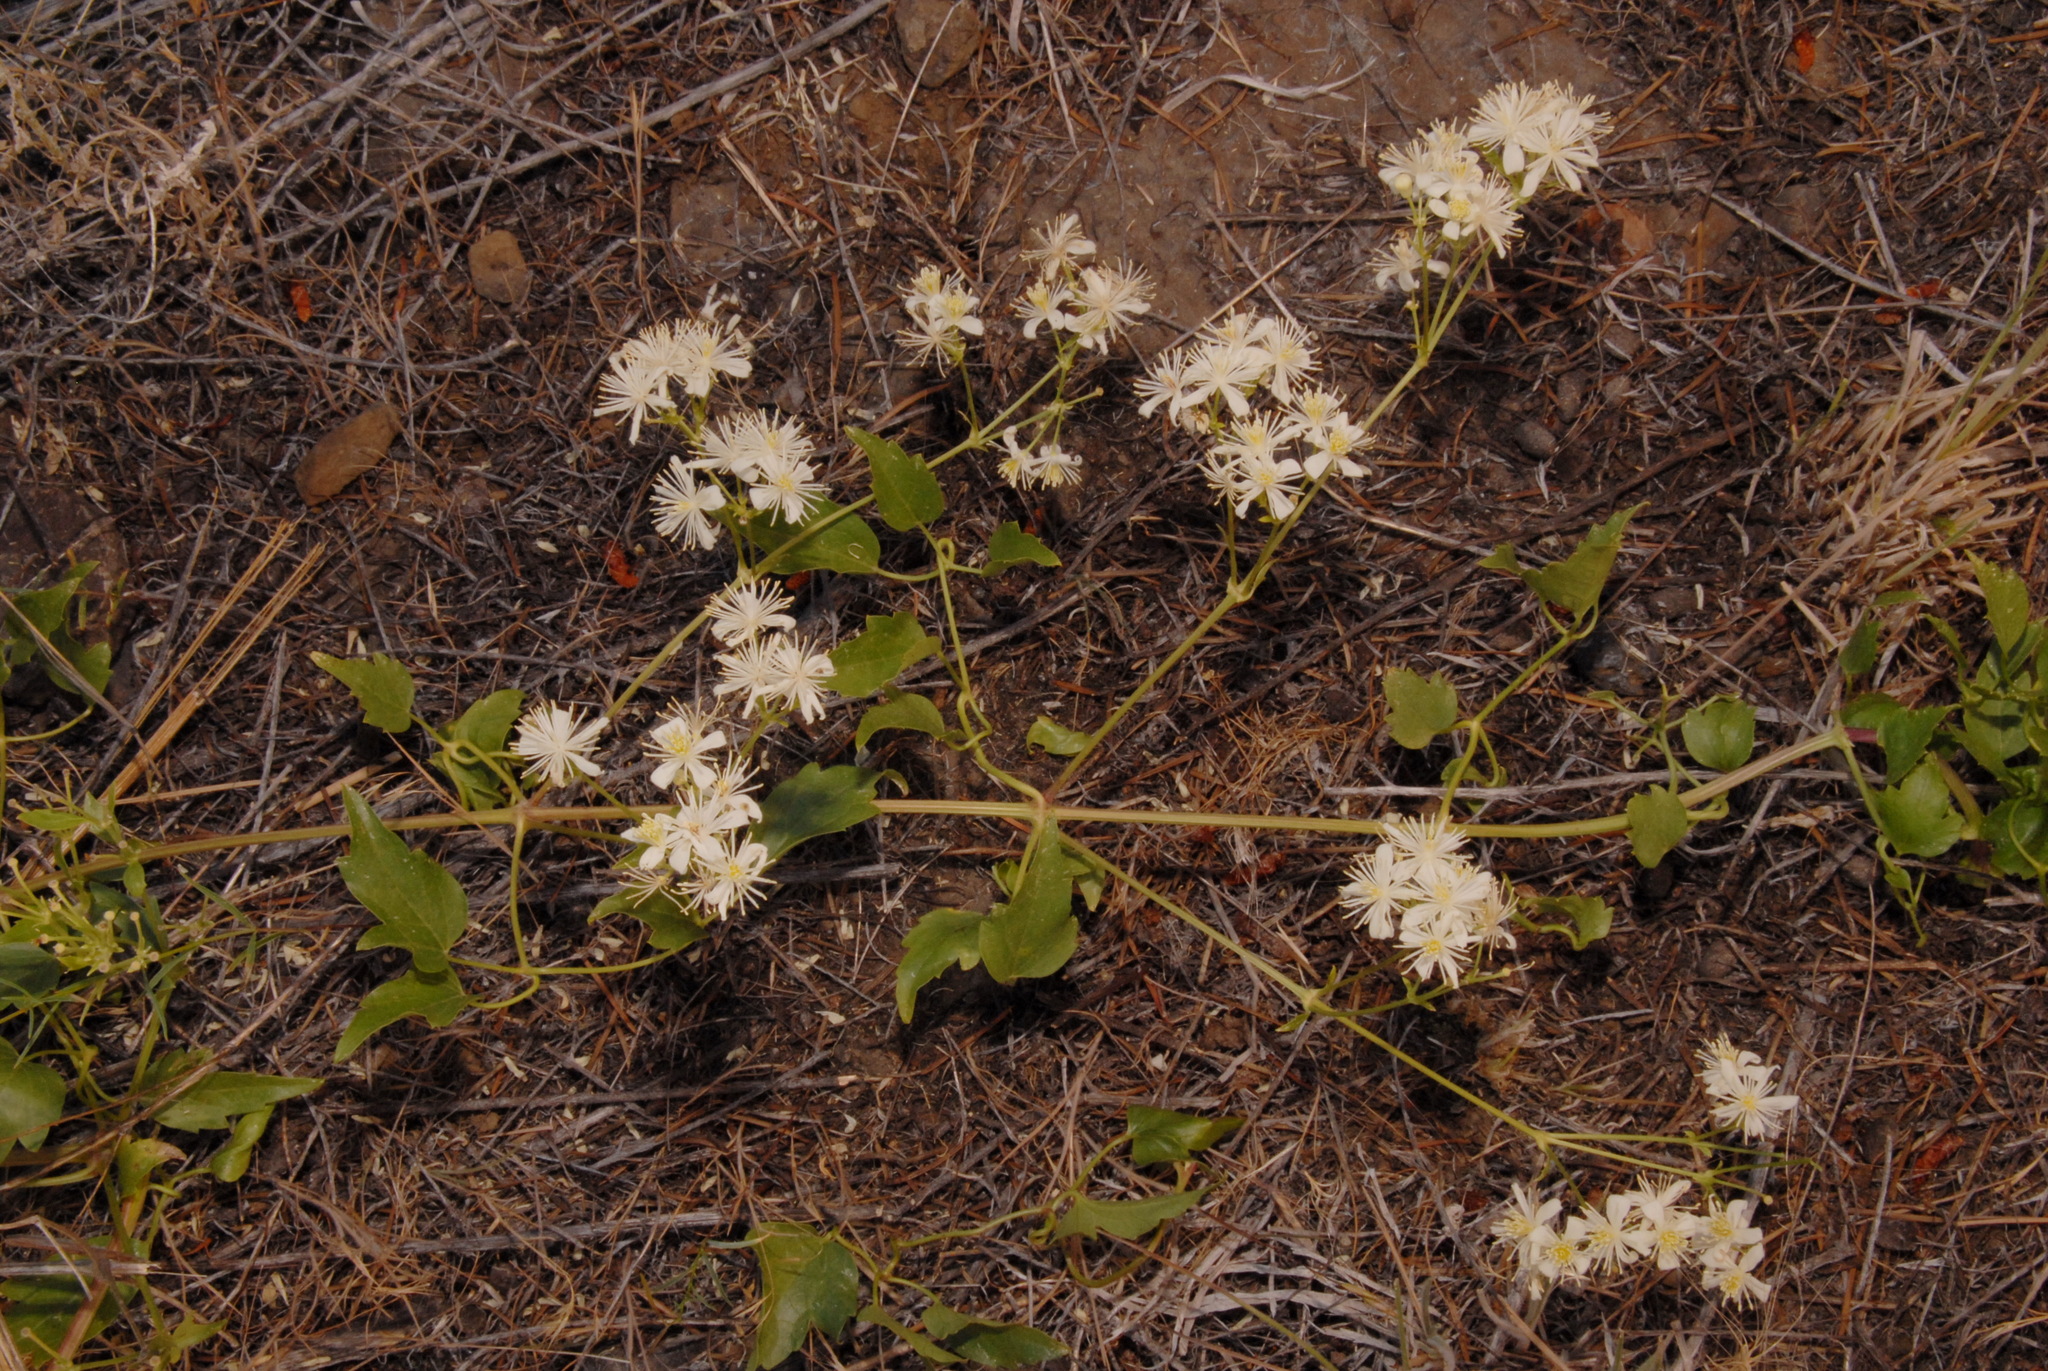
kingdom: Plantae
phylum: Tracheophyta
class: Magnoliopsida
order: Ranunculales
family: Ranunculaceae
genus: Clematis
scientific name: Clematis ligusticifolia
